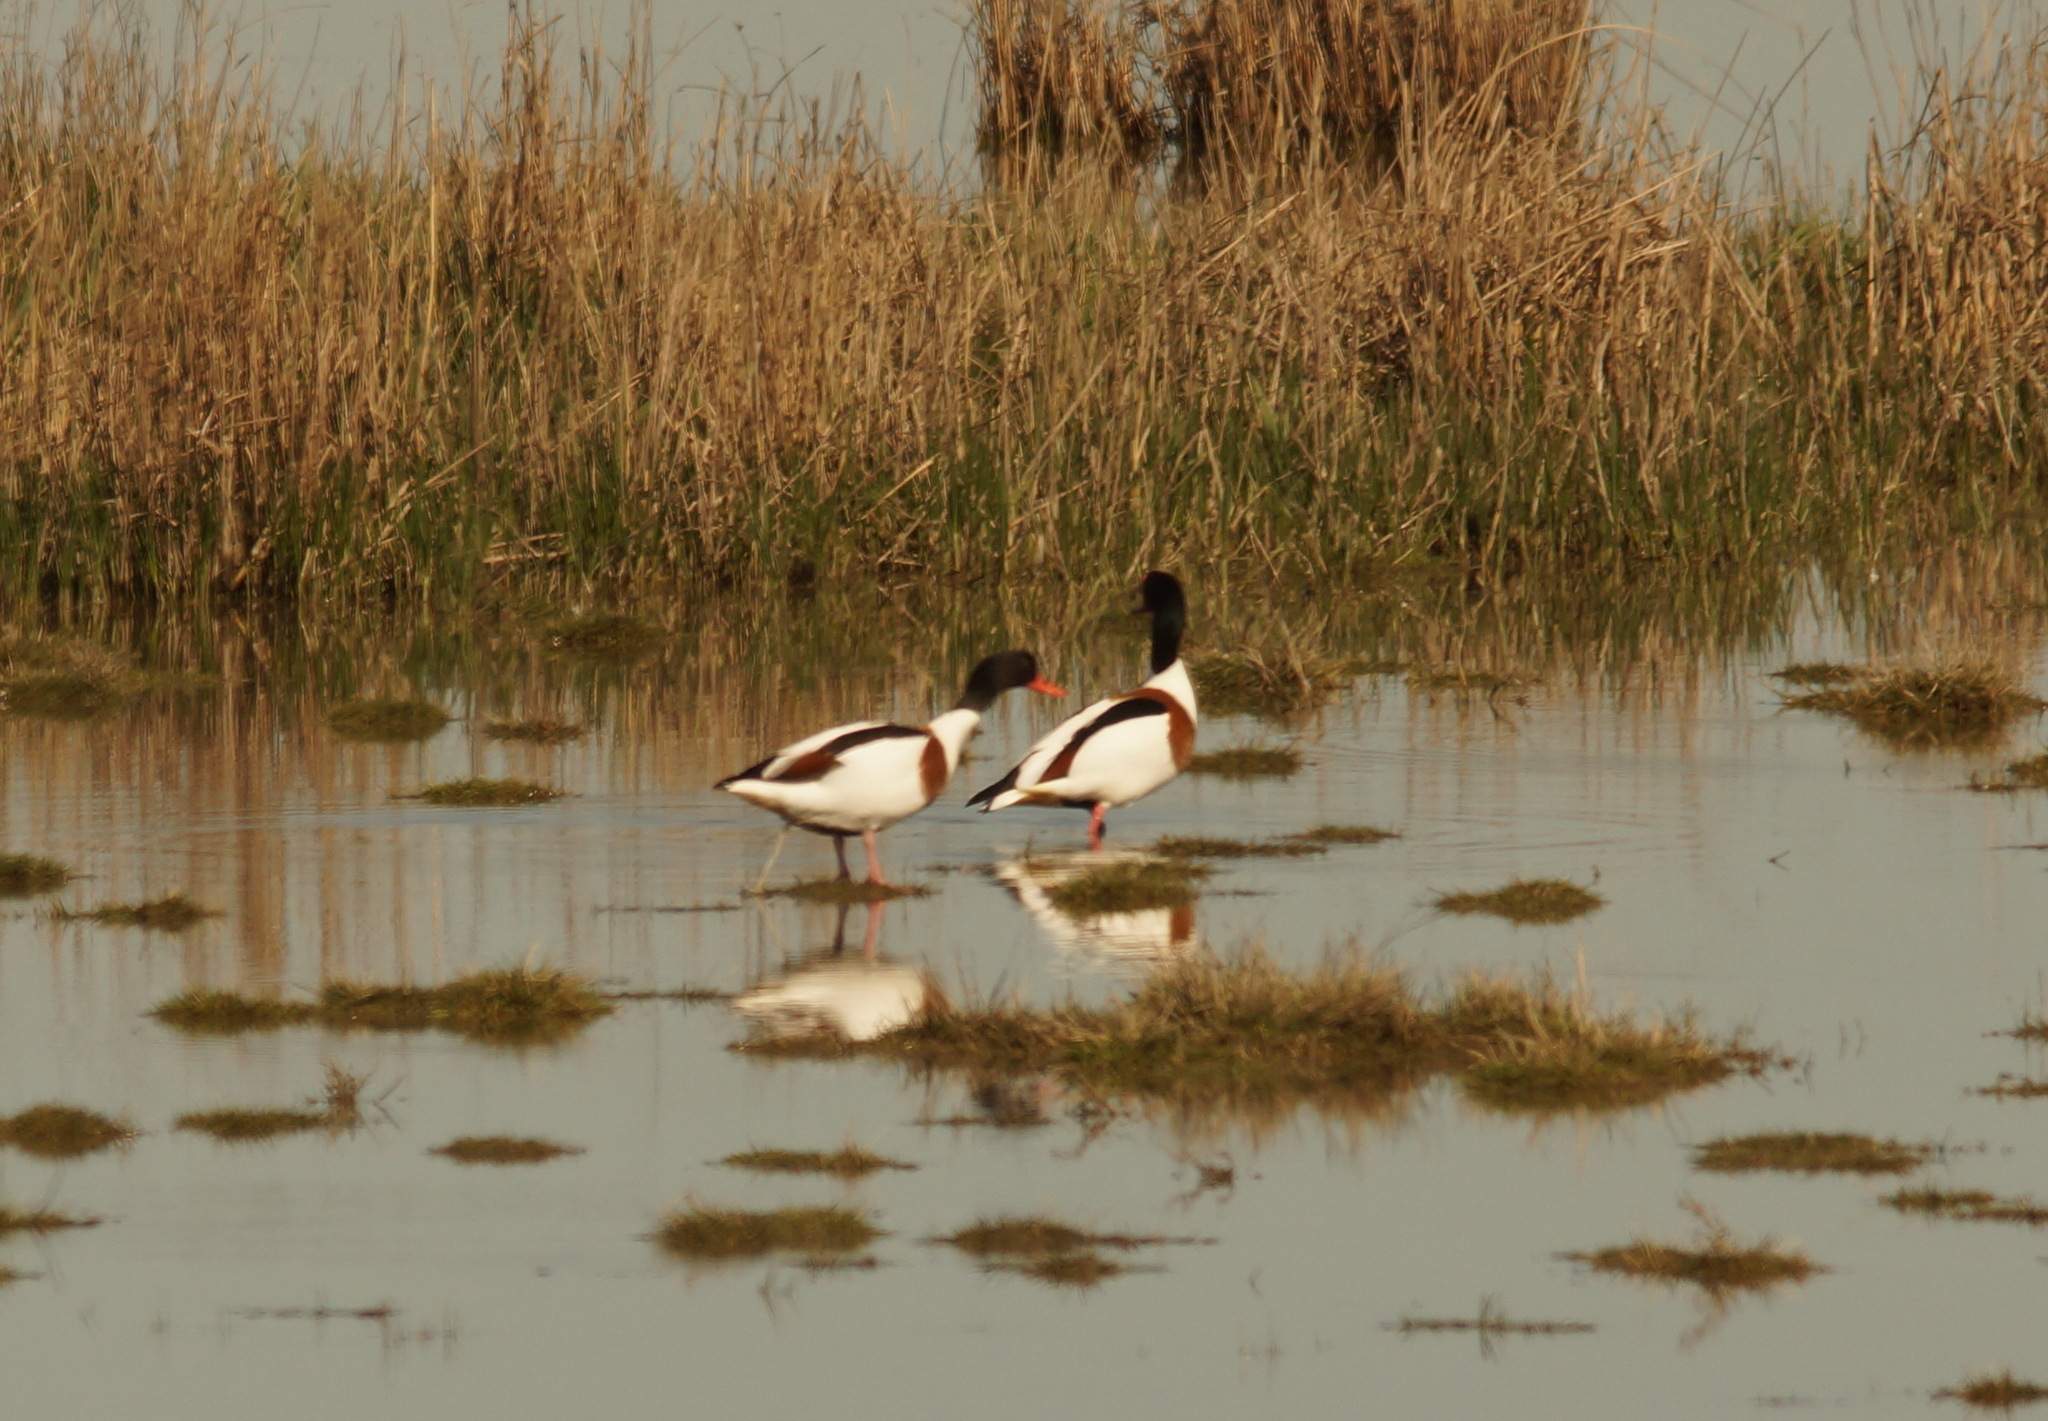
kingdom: Animalia
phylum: Chordata
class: Aves
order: Anseriformes
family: Anatidae
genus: Tadorna
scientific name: Tadorna tadorna
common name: Common shelduck
